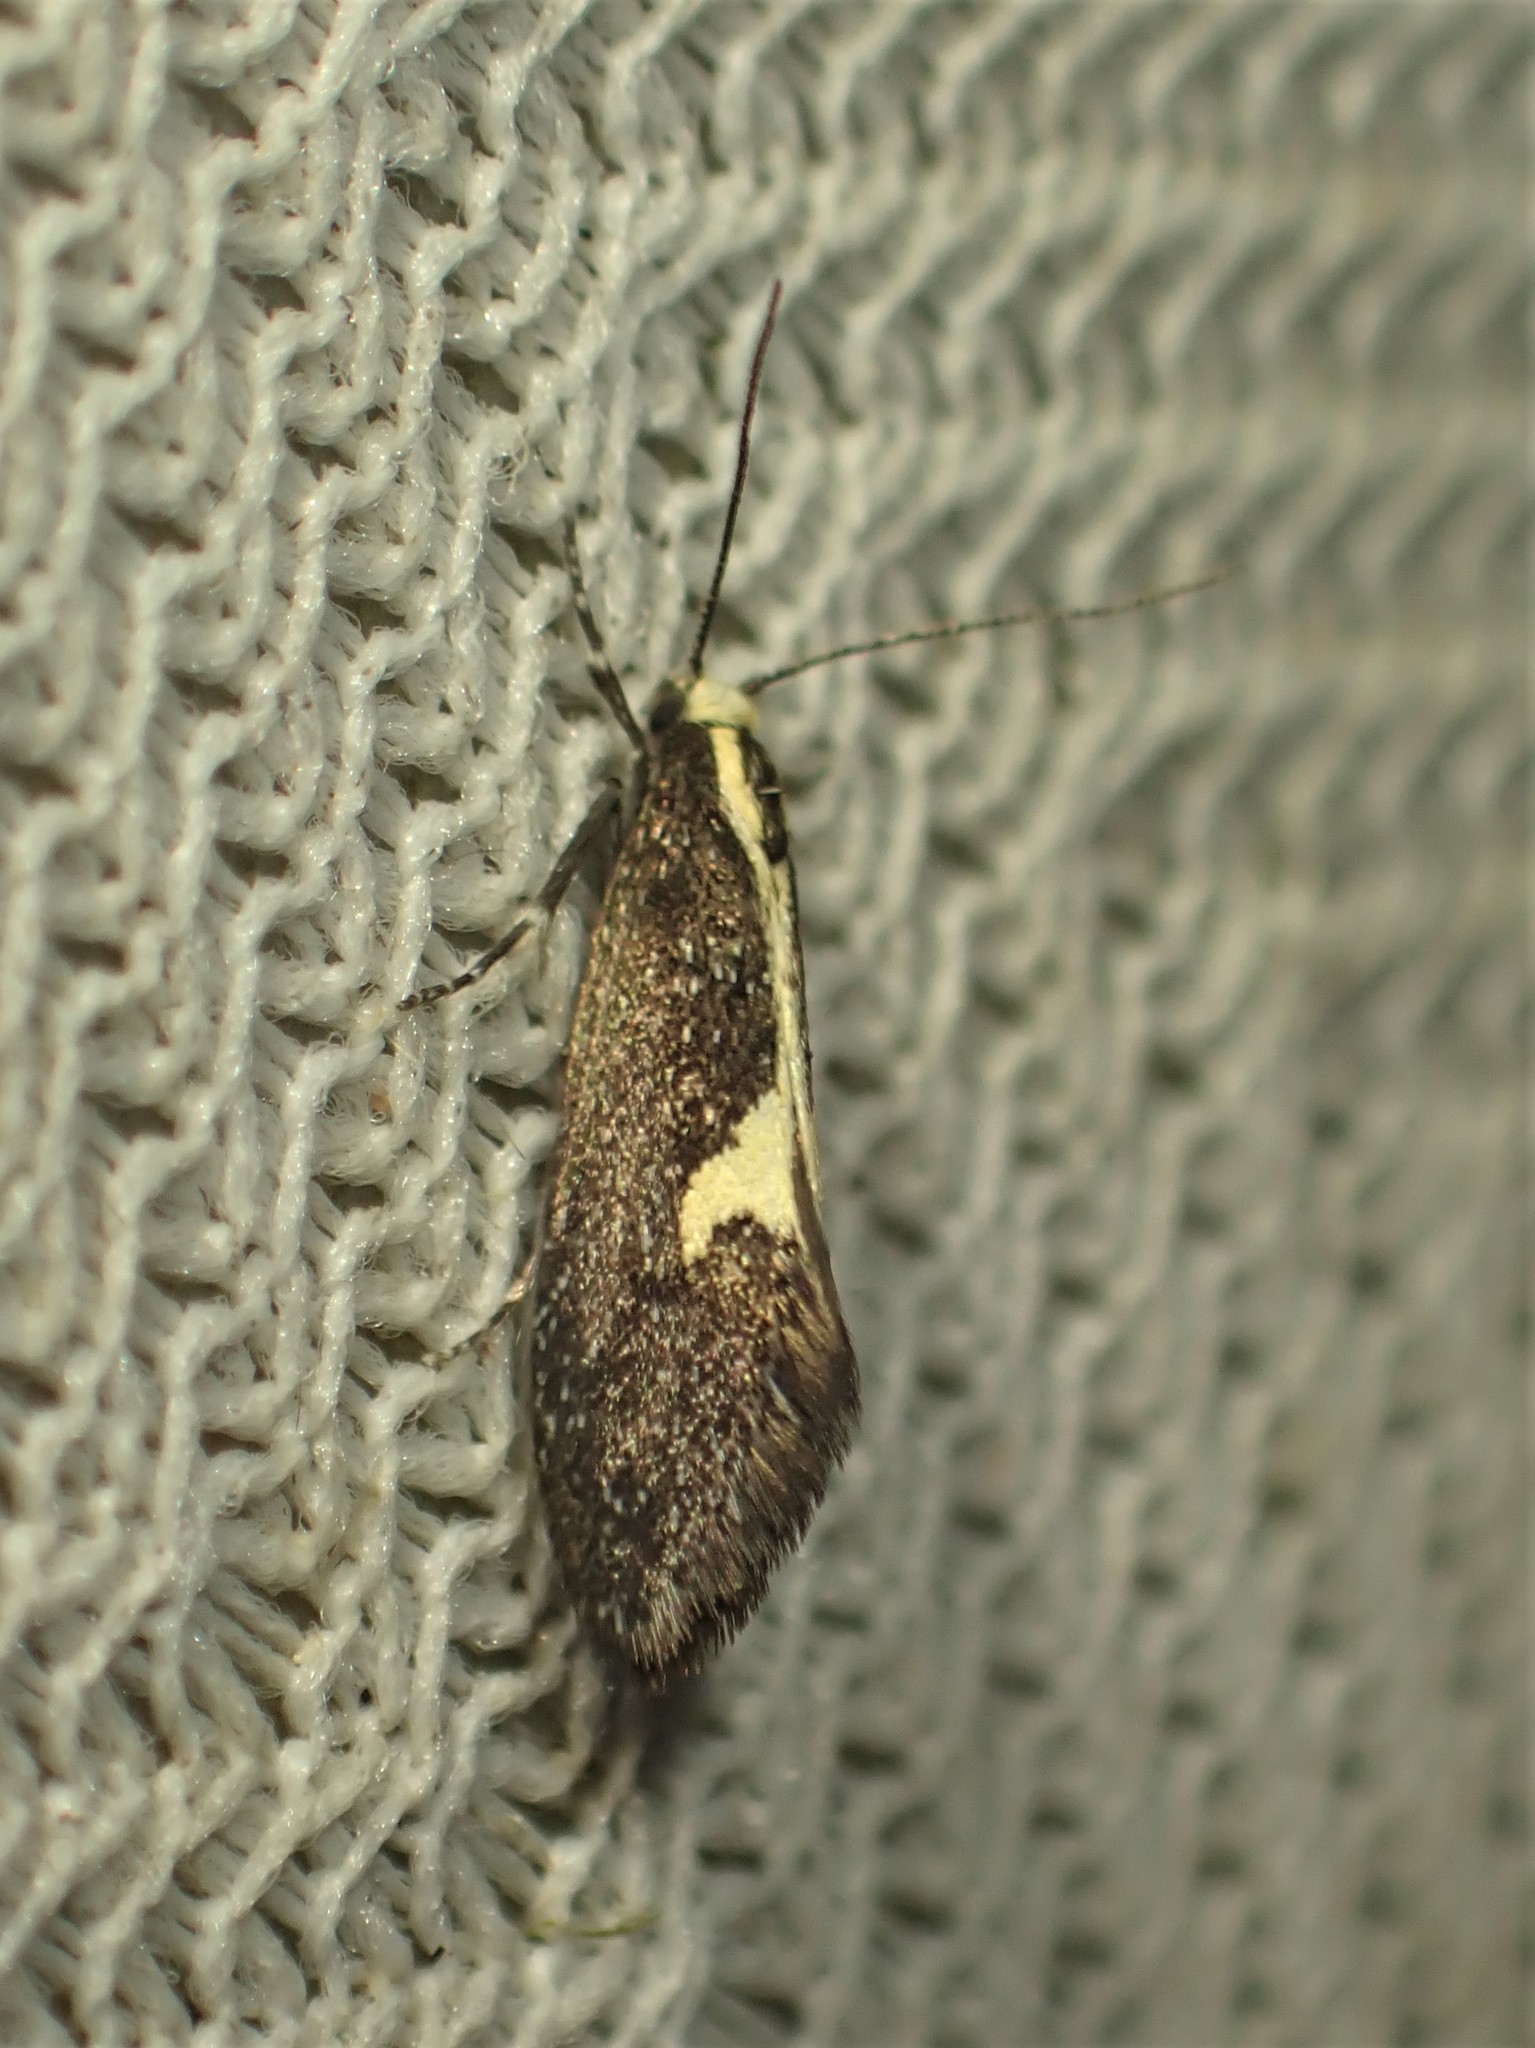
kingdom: Animalia
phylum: Arthropoda
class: Insecta
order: Lepidoptera
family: Oecophoridae
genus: Polix
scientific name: Polix coloradella
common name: Skunk moth
